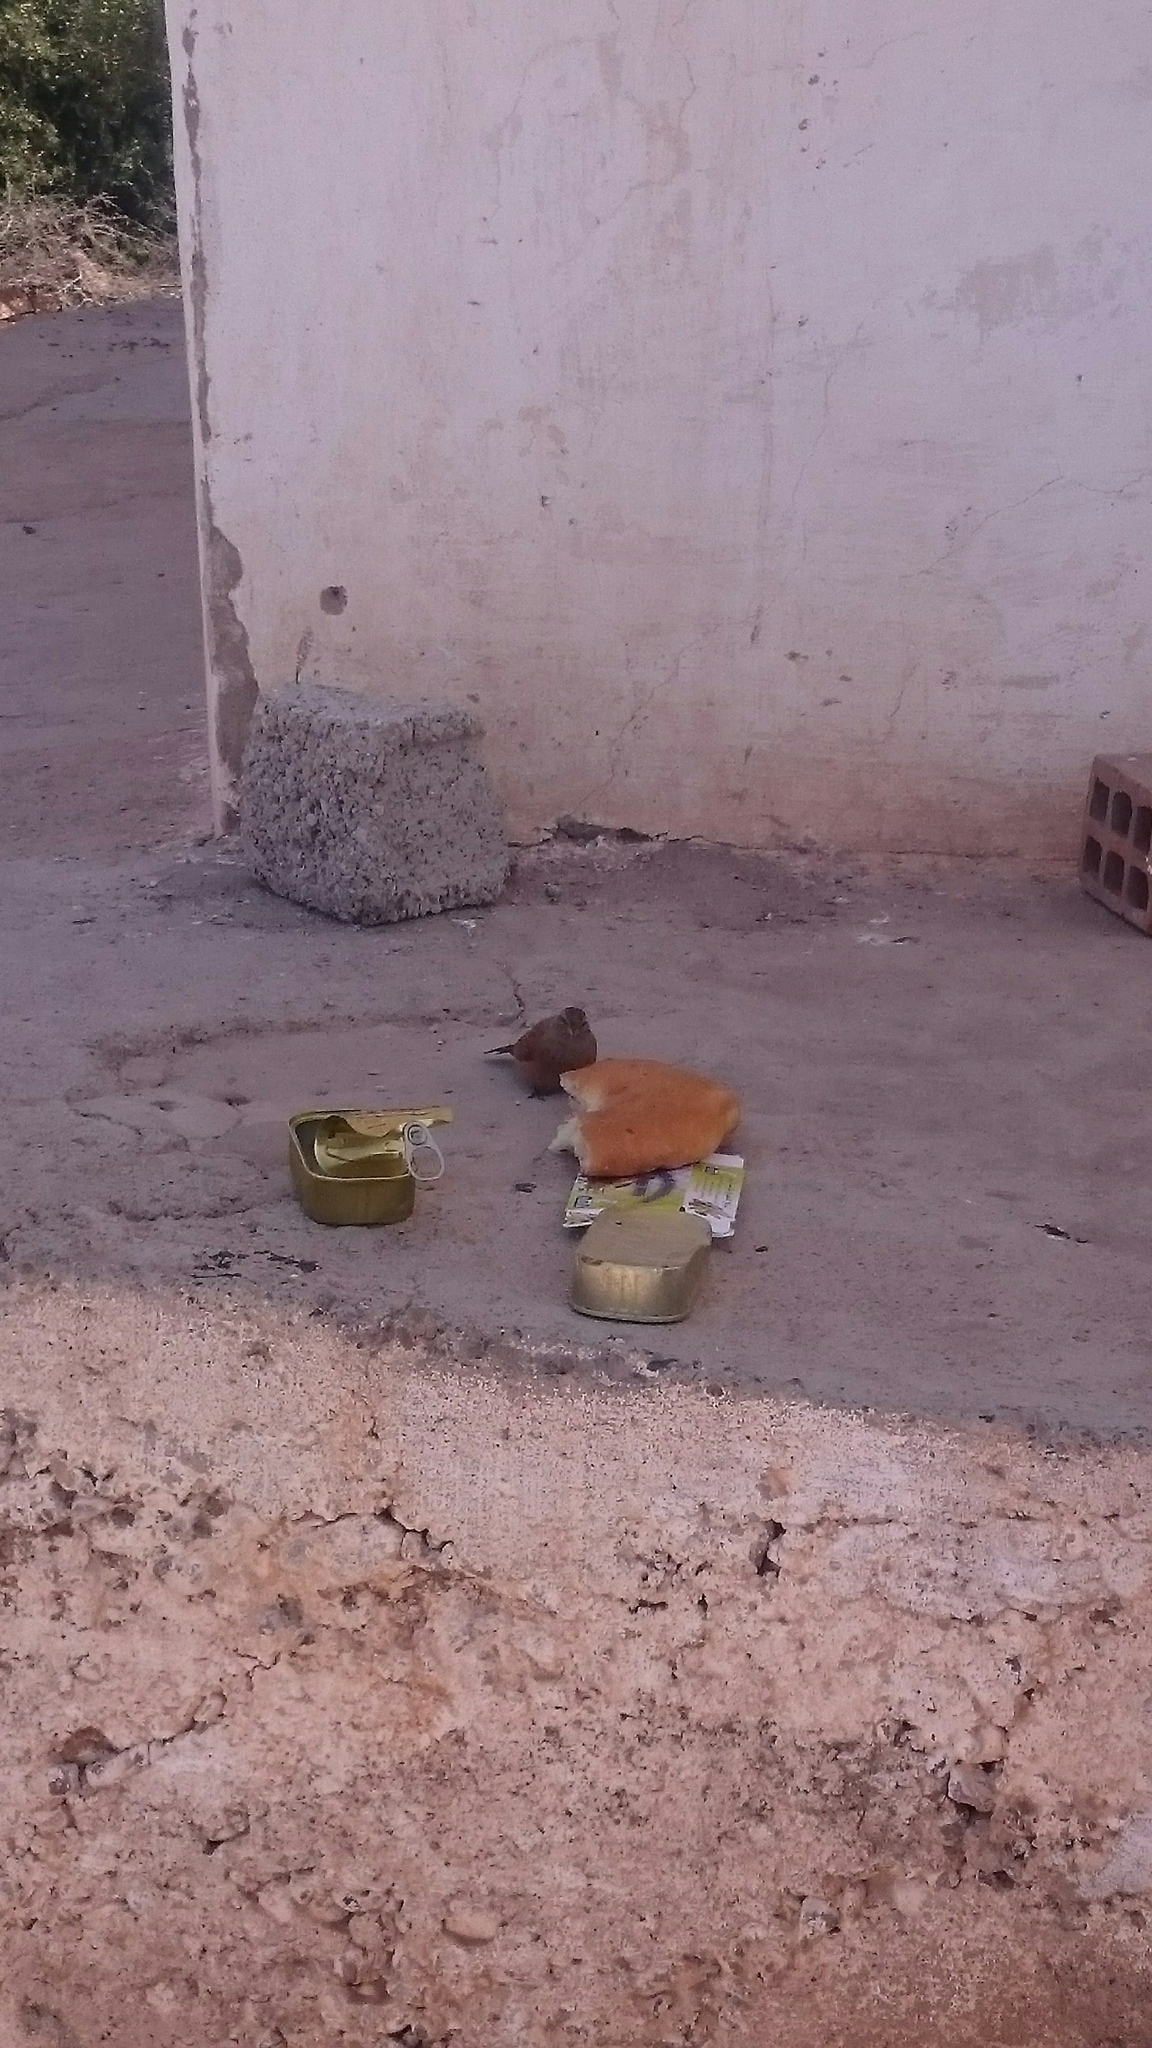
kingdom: Animalia
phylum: Chordata
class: Aves
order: Passeriformes
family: Emberizidae
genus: Emberiza
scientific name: Emberiza sahari
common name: House bunting
